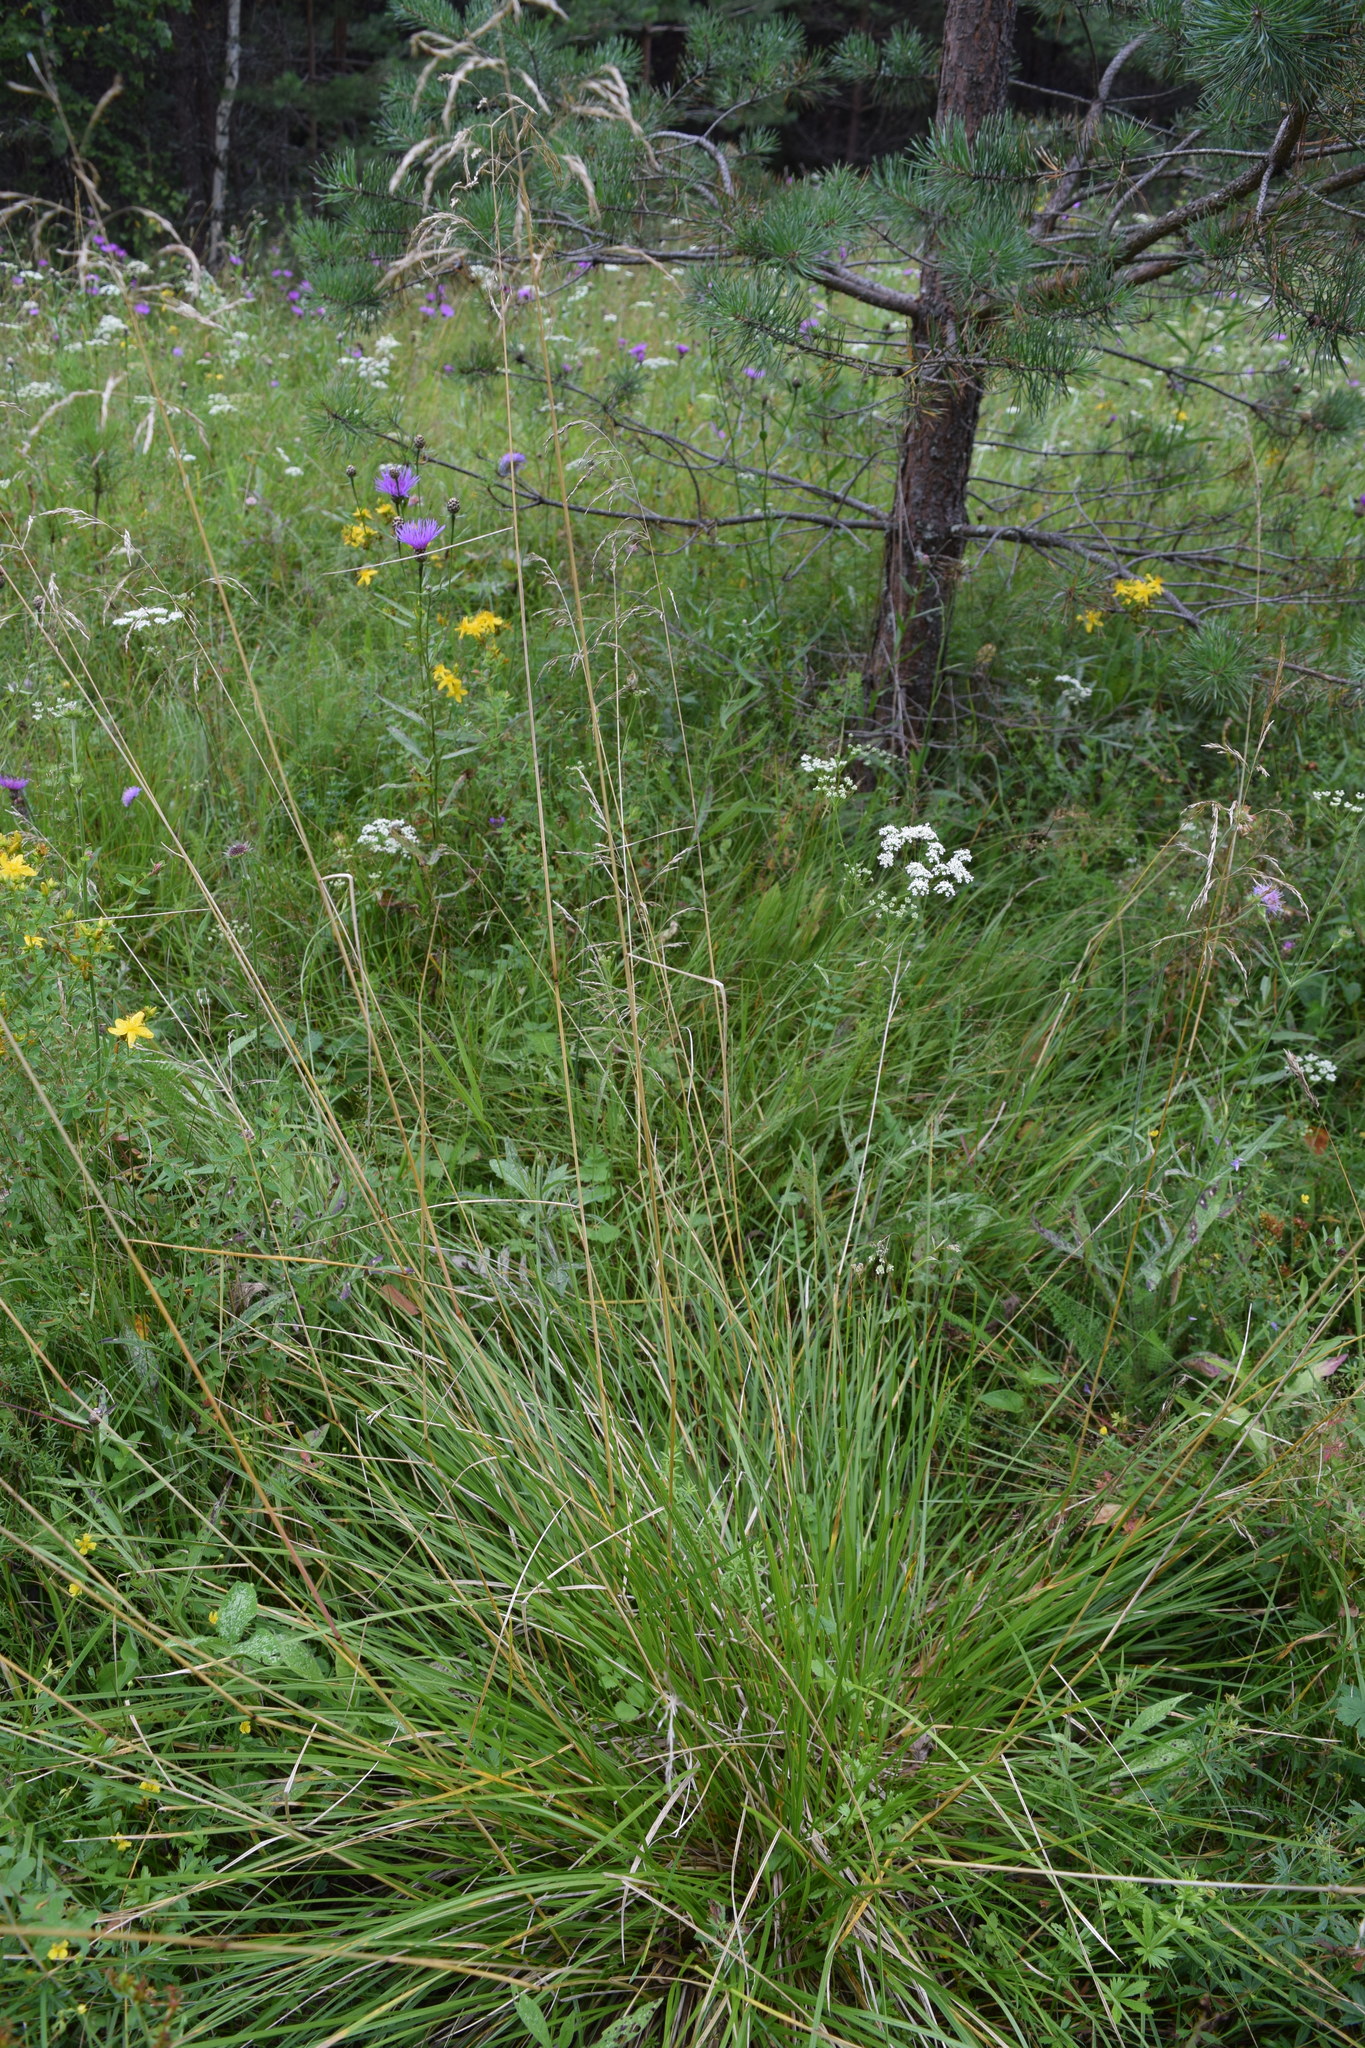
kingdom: Plantae
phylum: Tracheophyta
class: Liliopsida
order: Poales
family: Poaceae
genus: Deschampsia
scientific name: Deschampsia cespitosa
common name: Tufted hair-grass
